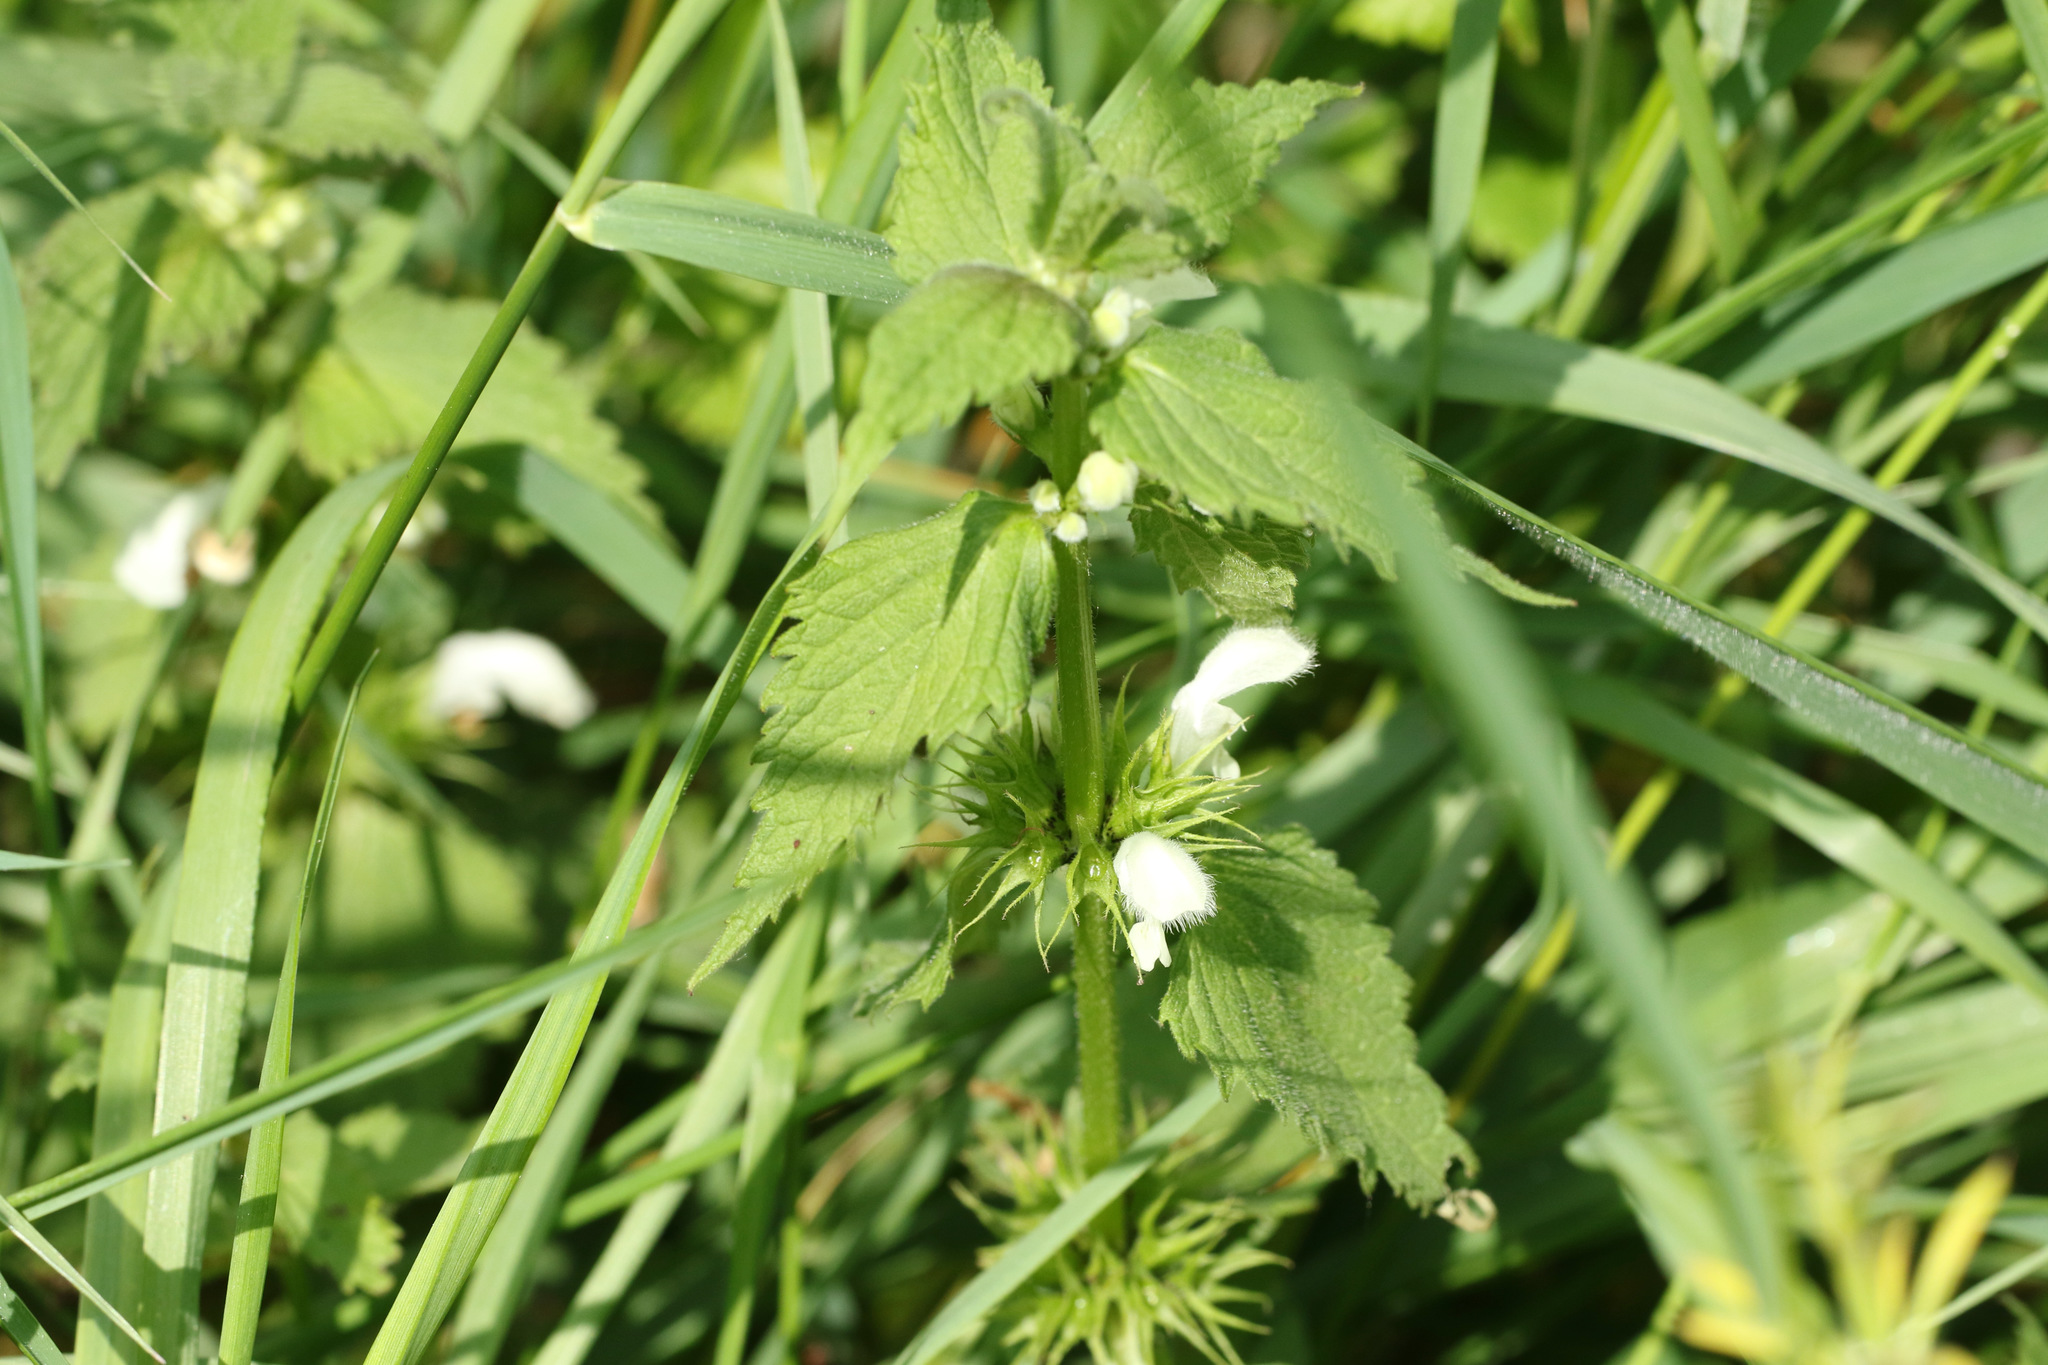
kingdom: Plantae
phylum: Tracheophyta
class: Magnoliopsida
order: Lamiales
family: Lamiaceae
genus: Lamium
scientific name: Lamium album
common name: White dead-nettle
